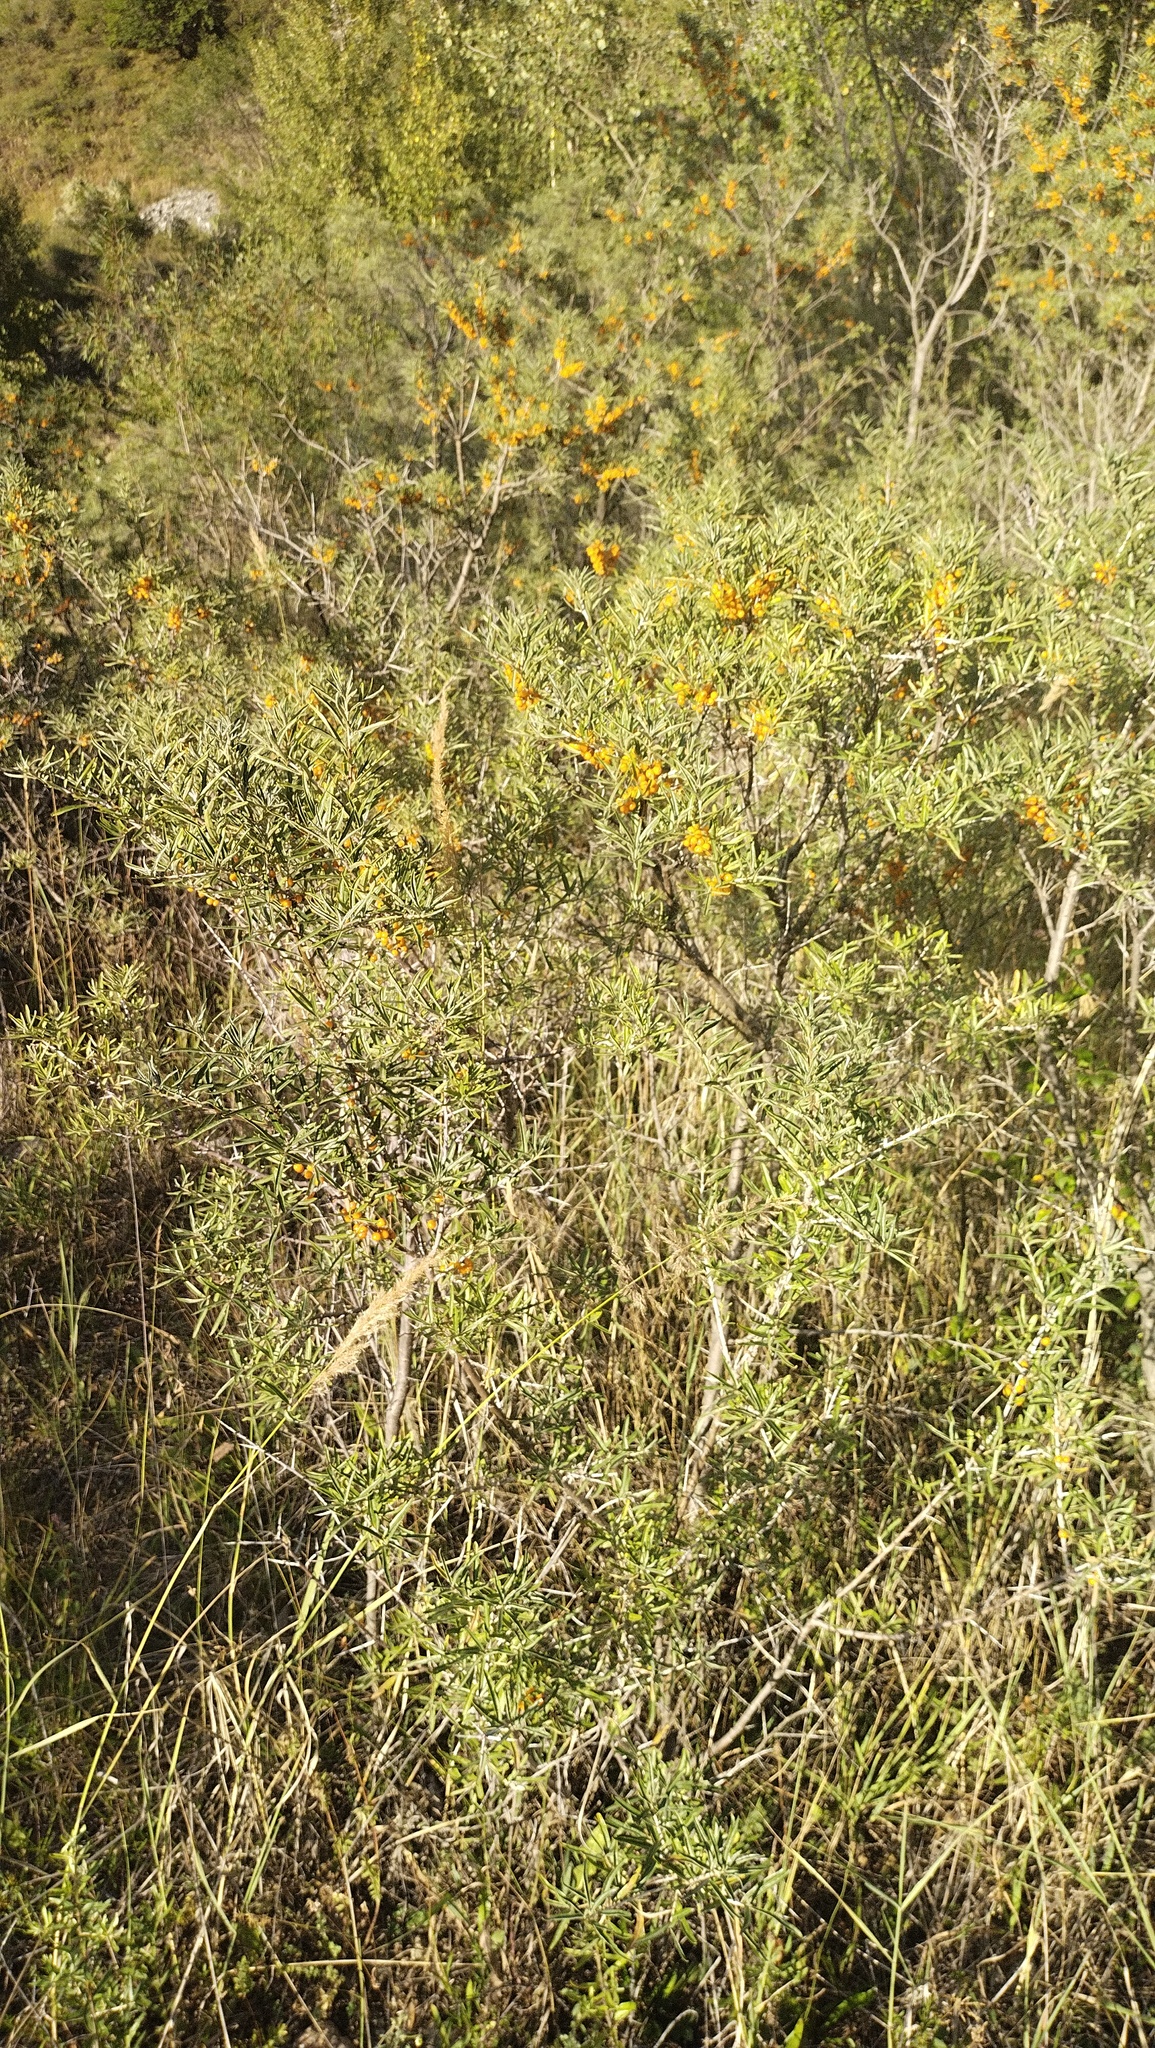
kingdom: Plantae
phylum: Tracheophyta
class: Magnoliopsida
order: Rosales
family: Elaeagnaceae
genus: Hippophae
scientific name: Hippophae rhamnoides
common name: Sea-buckthorn
